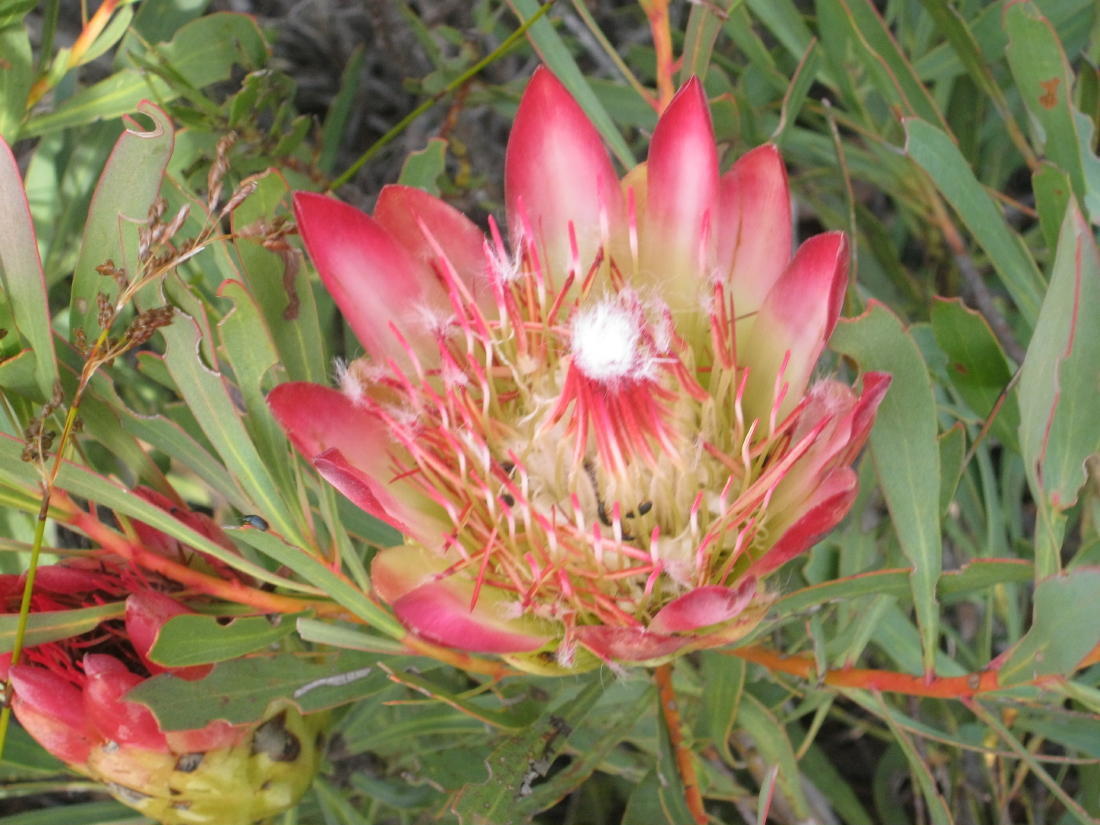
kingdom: Plantae
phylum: Tracheophyta
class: Magnoliopsida
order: Proteales
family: Proteaceae
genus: Protea
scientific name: Protea repens
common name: Sugarbush
